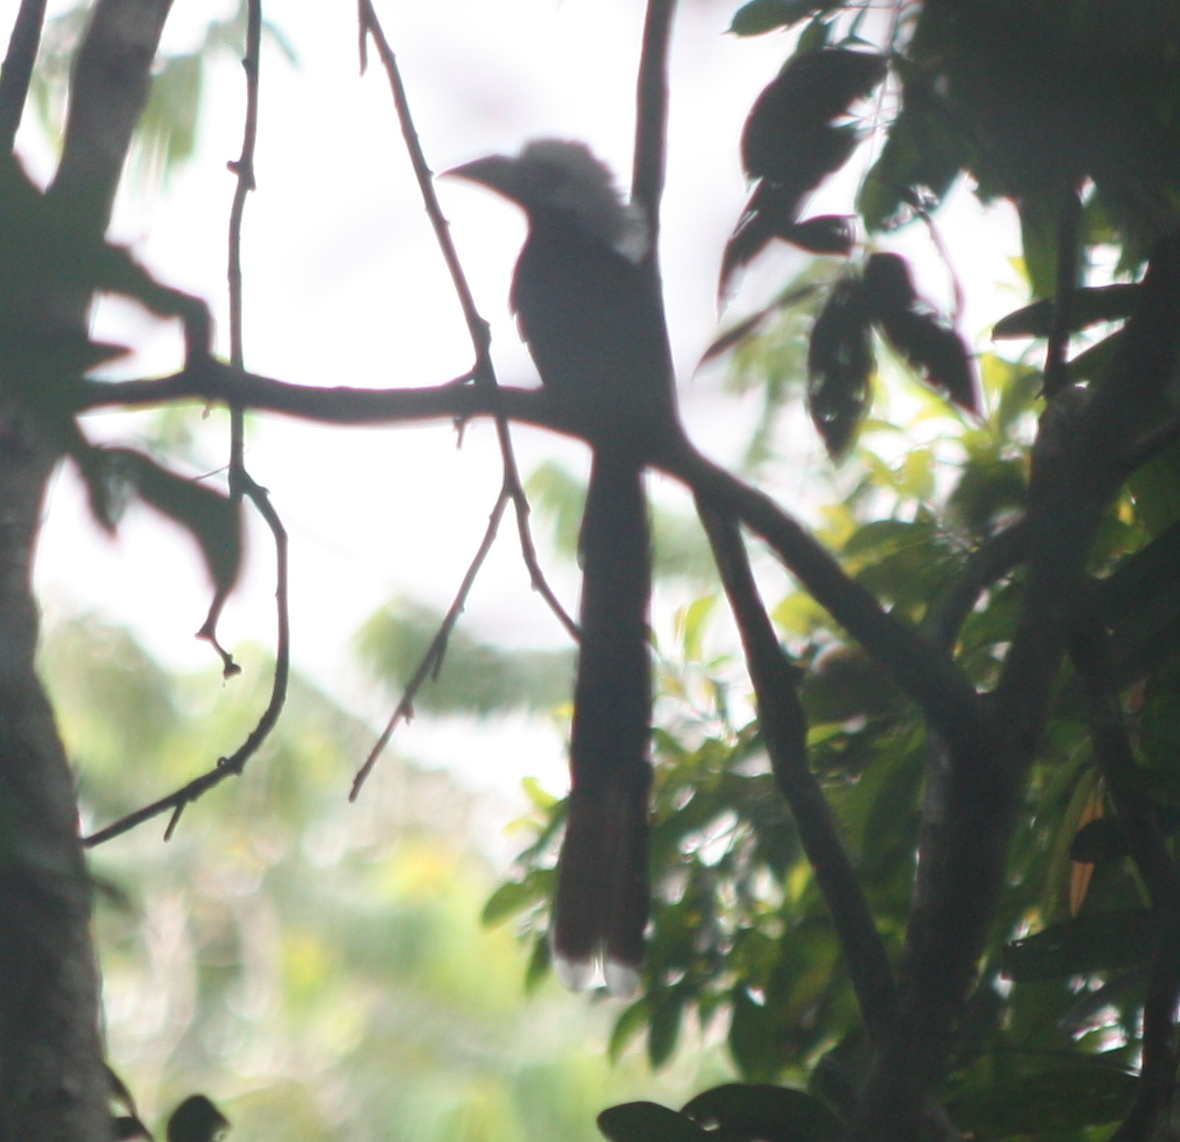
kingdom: Animalia
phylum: Chordata
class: Aves
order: Bucerotiformes
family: Bucerotidae
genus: Horizocerus
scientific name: Horizocerus albocristatus
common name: White-crested hornbill
